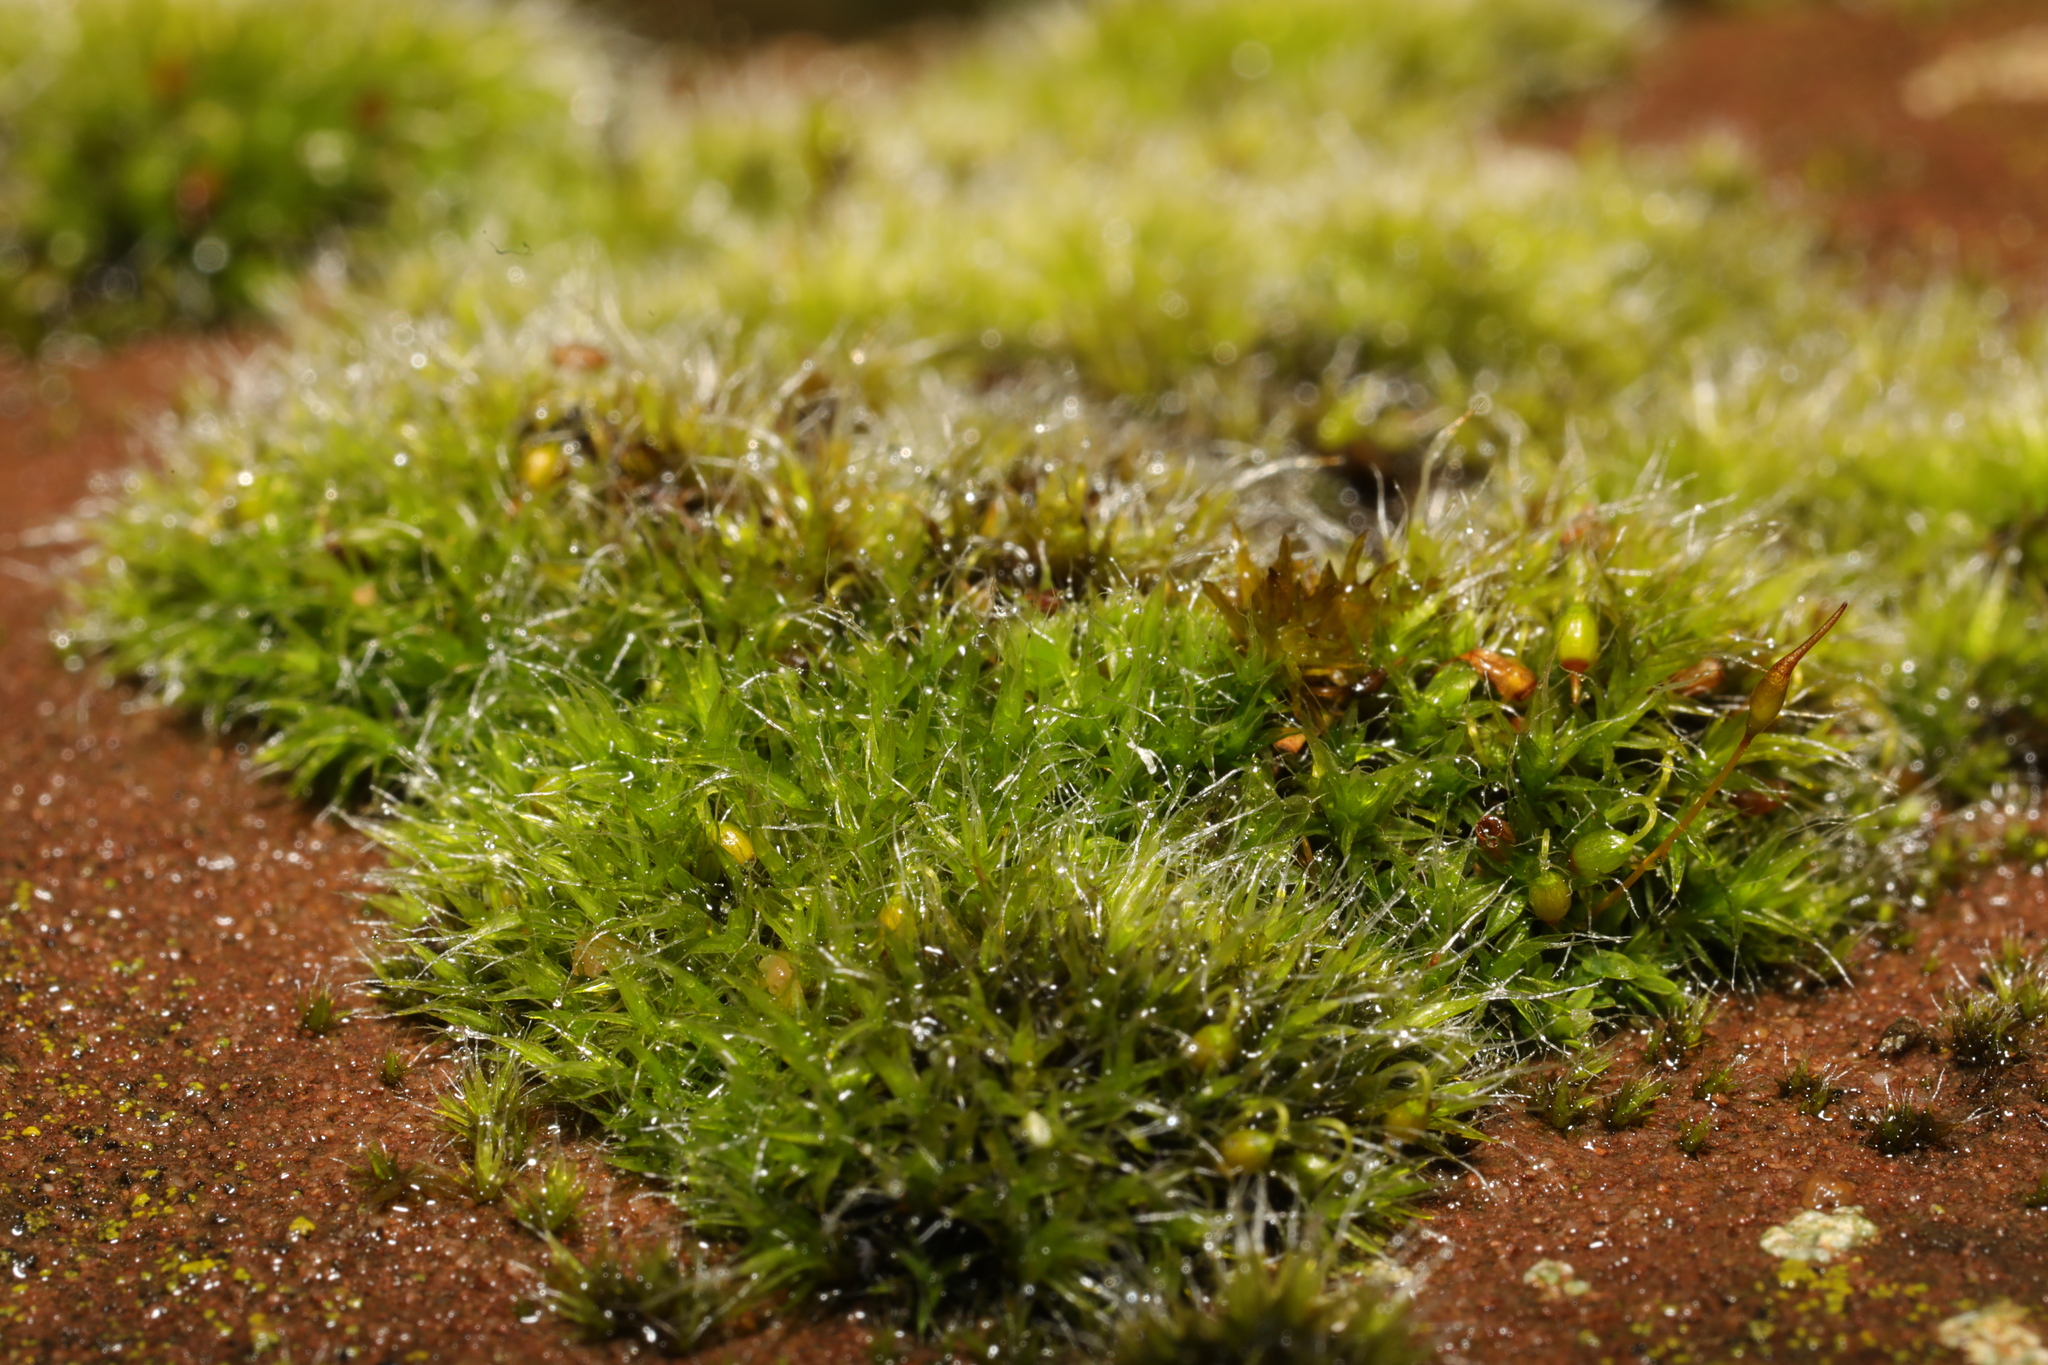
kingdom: Plantae
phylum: Bryophyta
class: Bryopsida
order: Grimmiales
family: Grimmiaceae
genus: Grimmia
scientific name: Grimmia pulvinata
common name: Grey-cushioned grimmia
